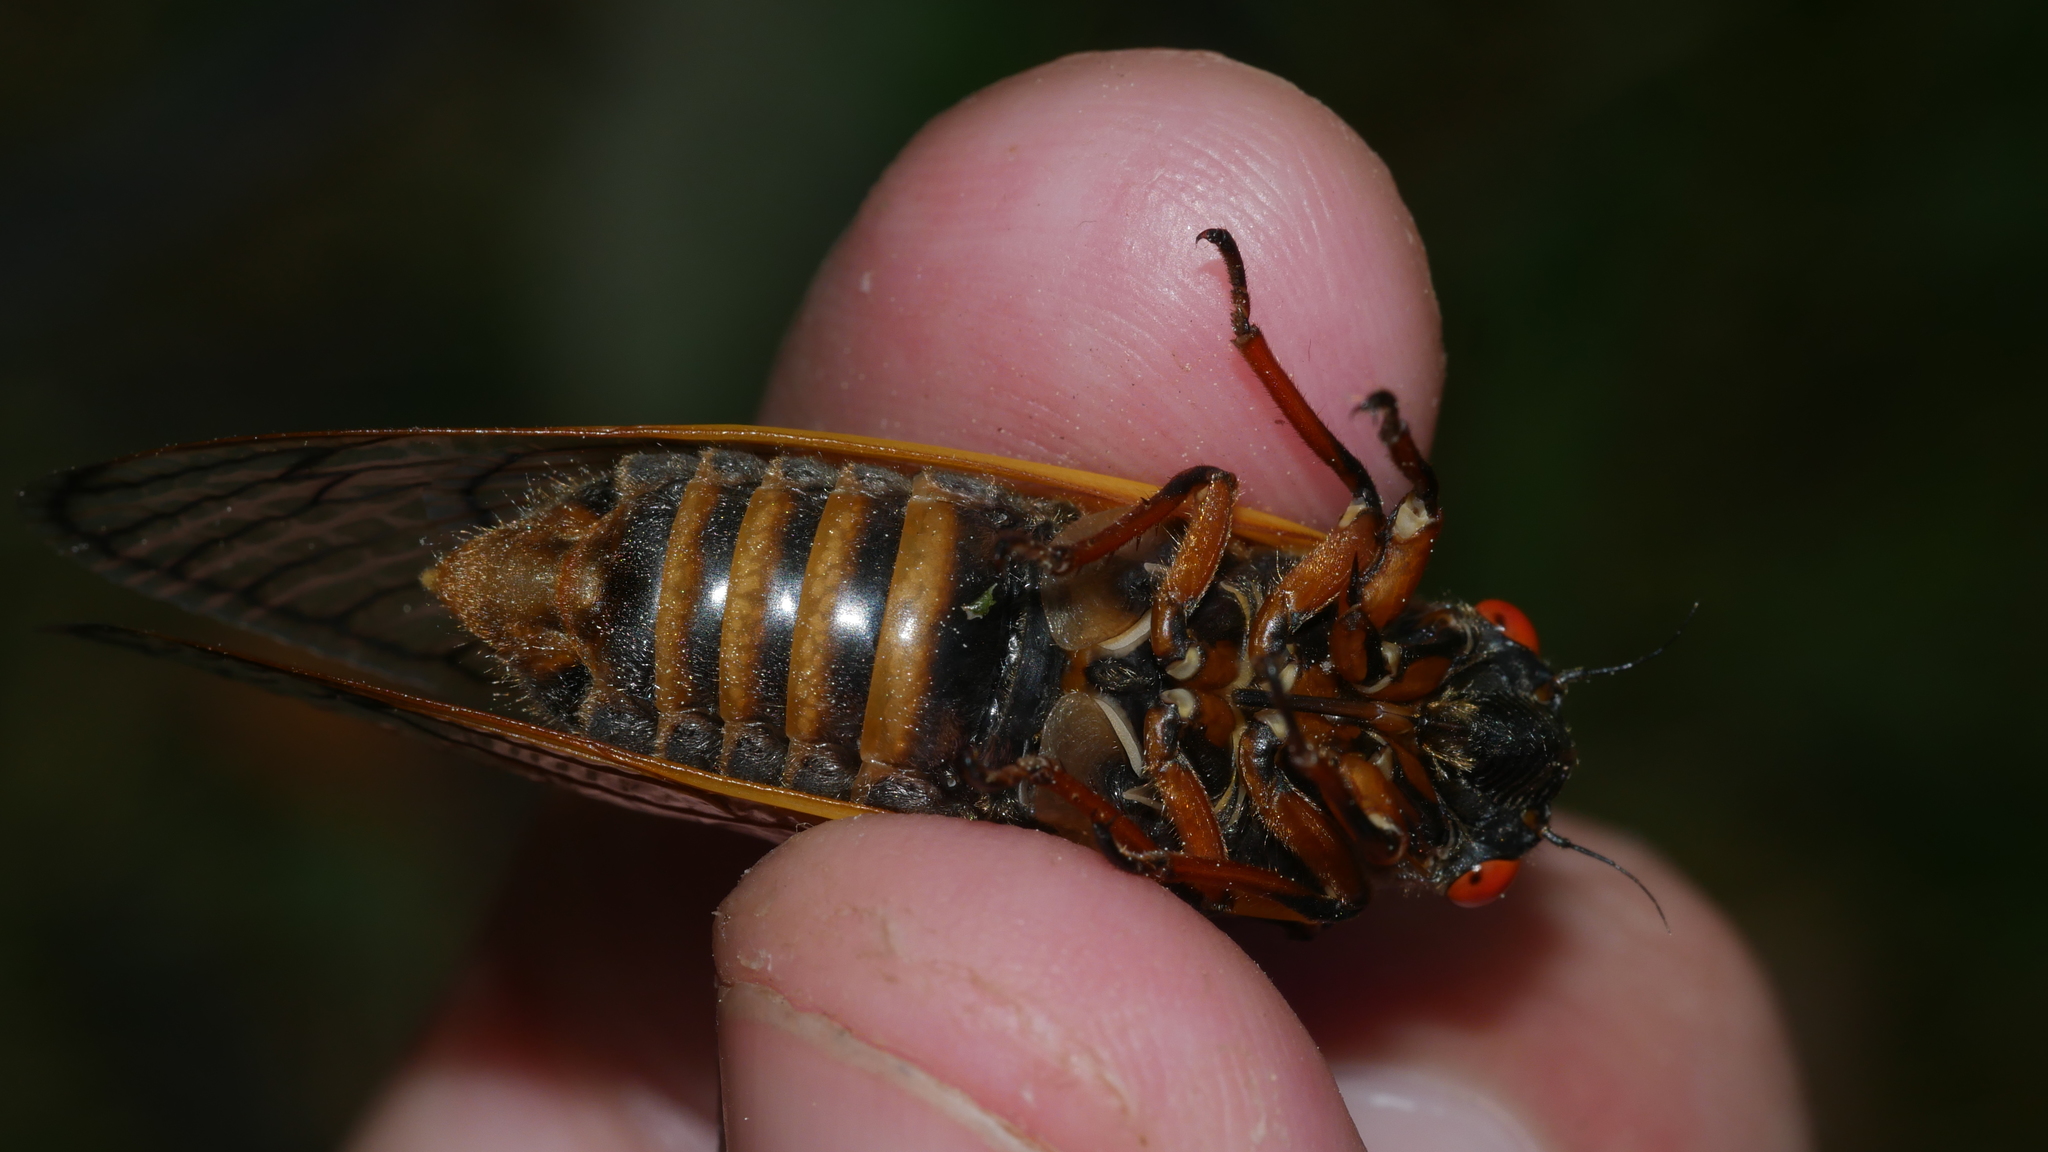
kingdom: Animalia
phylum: Arthropoda
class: Insecta
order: Hemiptera
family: Cicadidae
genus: Magicicada
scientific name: Magicicada septendecim
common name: Periodical cicada
